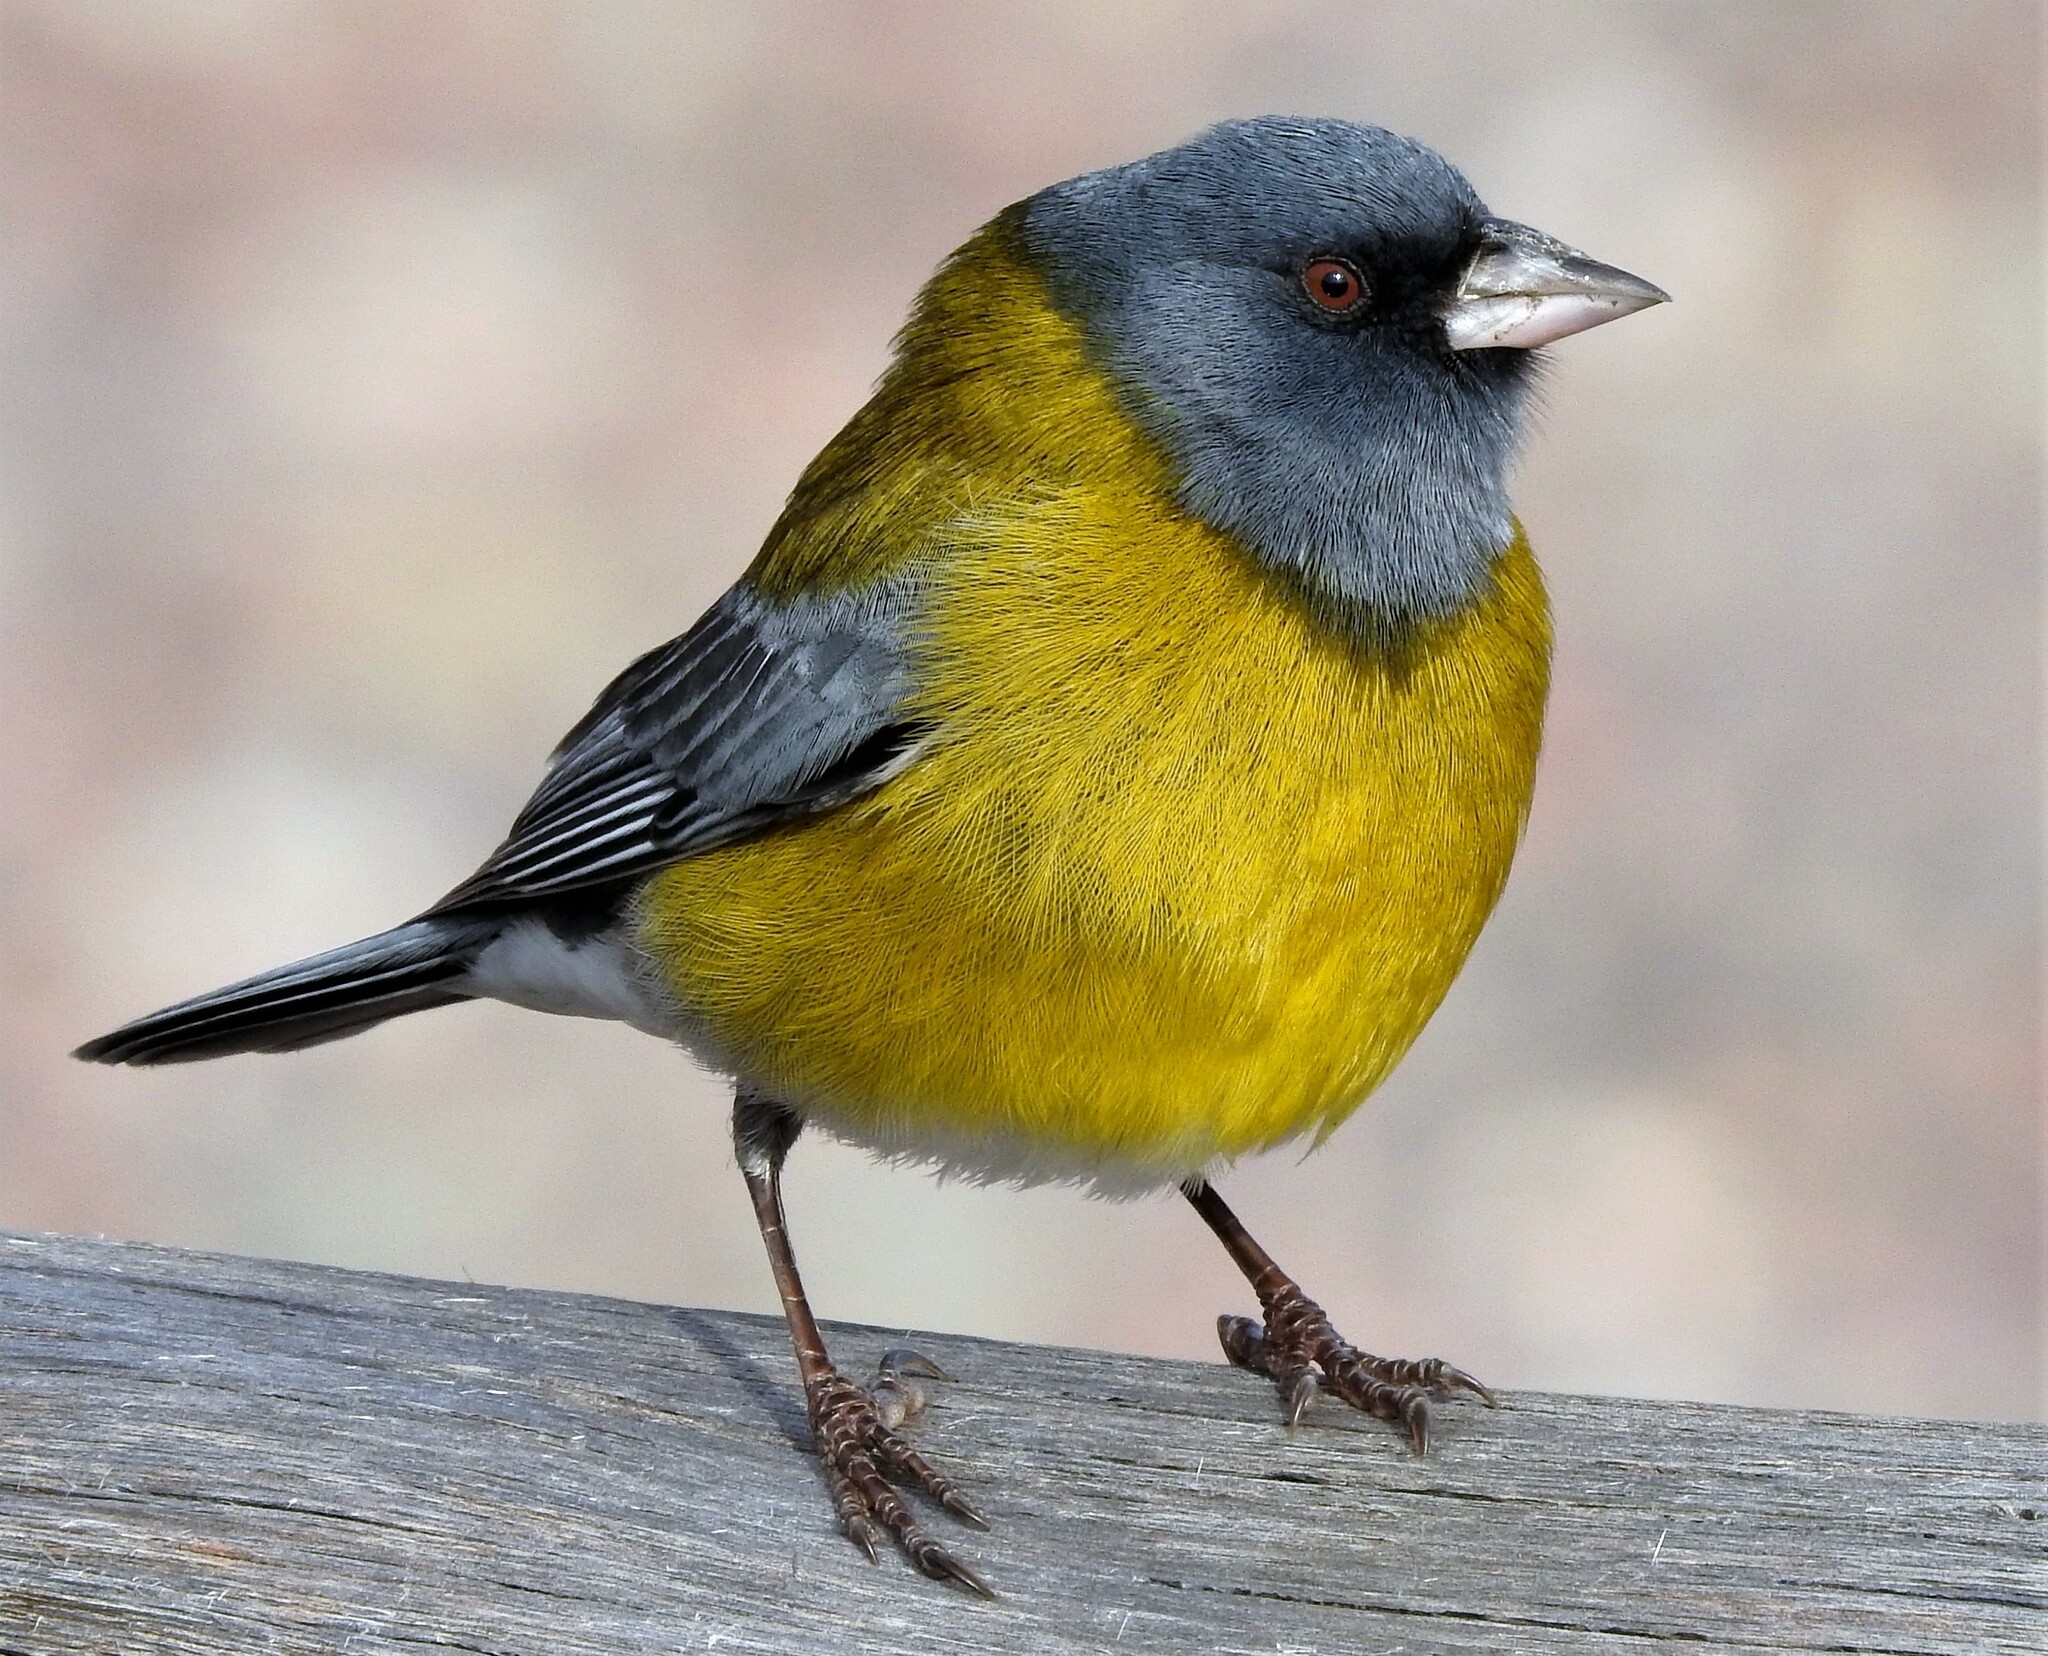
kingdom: Animalia
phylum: Chordata
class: Aves
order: Passeriformes
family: Thraupidae
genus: Phrygilus
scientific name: Phrygilus gayi
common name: Grey-hooded sierra finch
